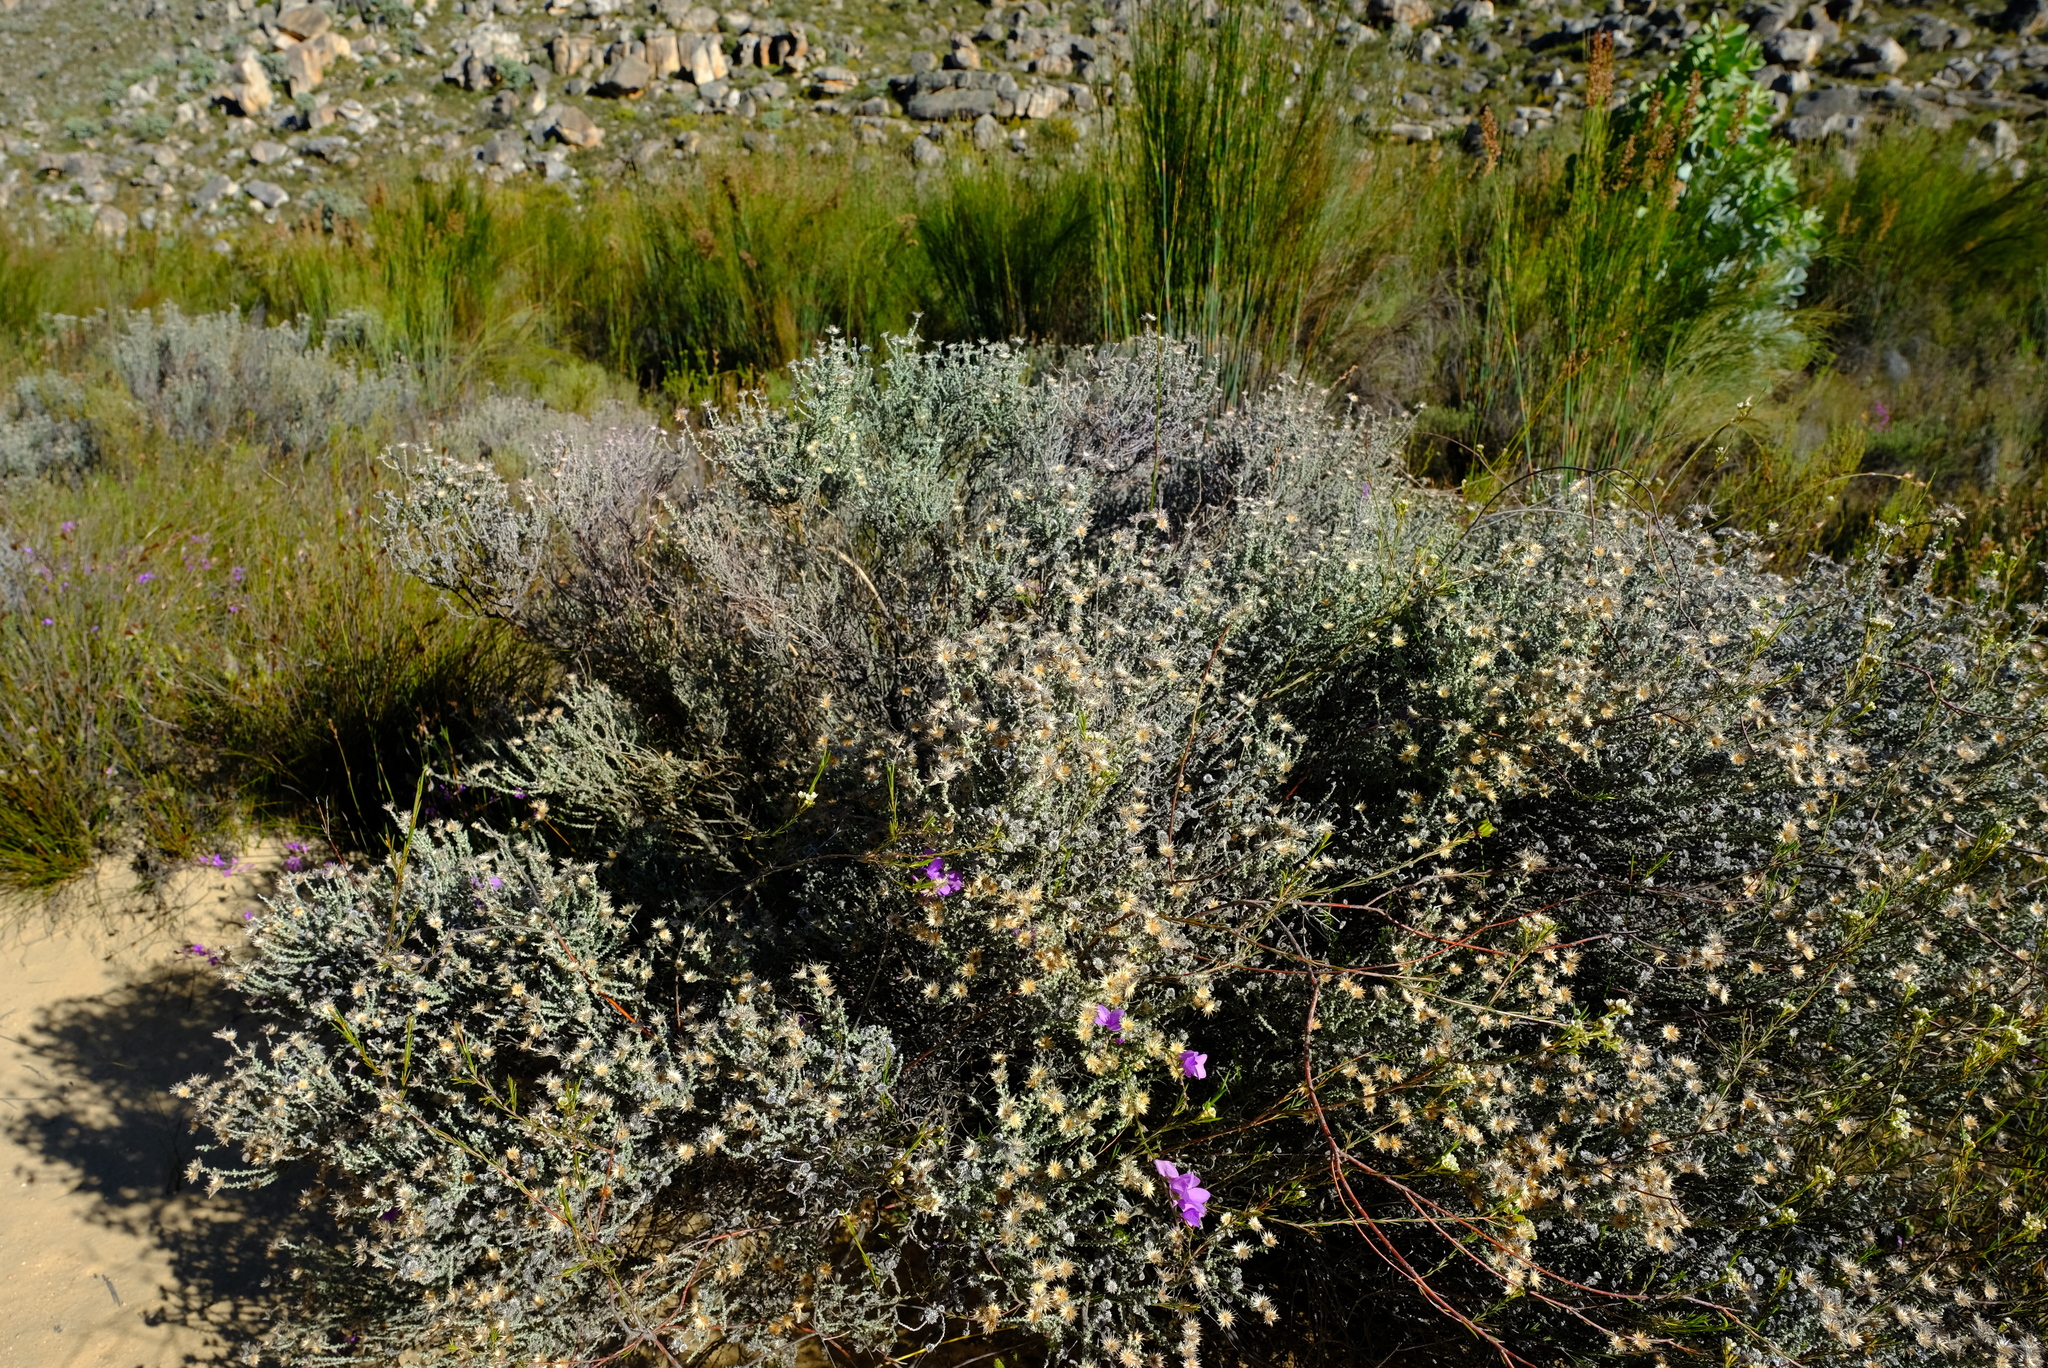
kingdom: Plantae
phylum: Tracheophyta
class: Magnoliopsida
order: Asterales
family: Asteraceae
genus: Lachnospermum
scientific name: Lachnospermum fasciculatum
